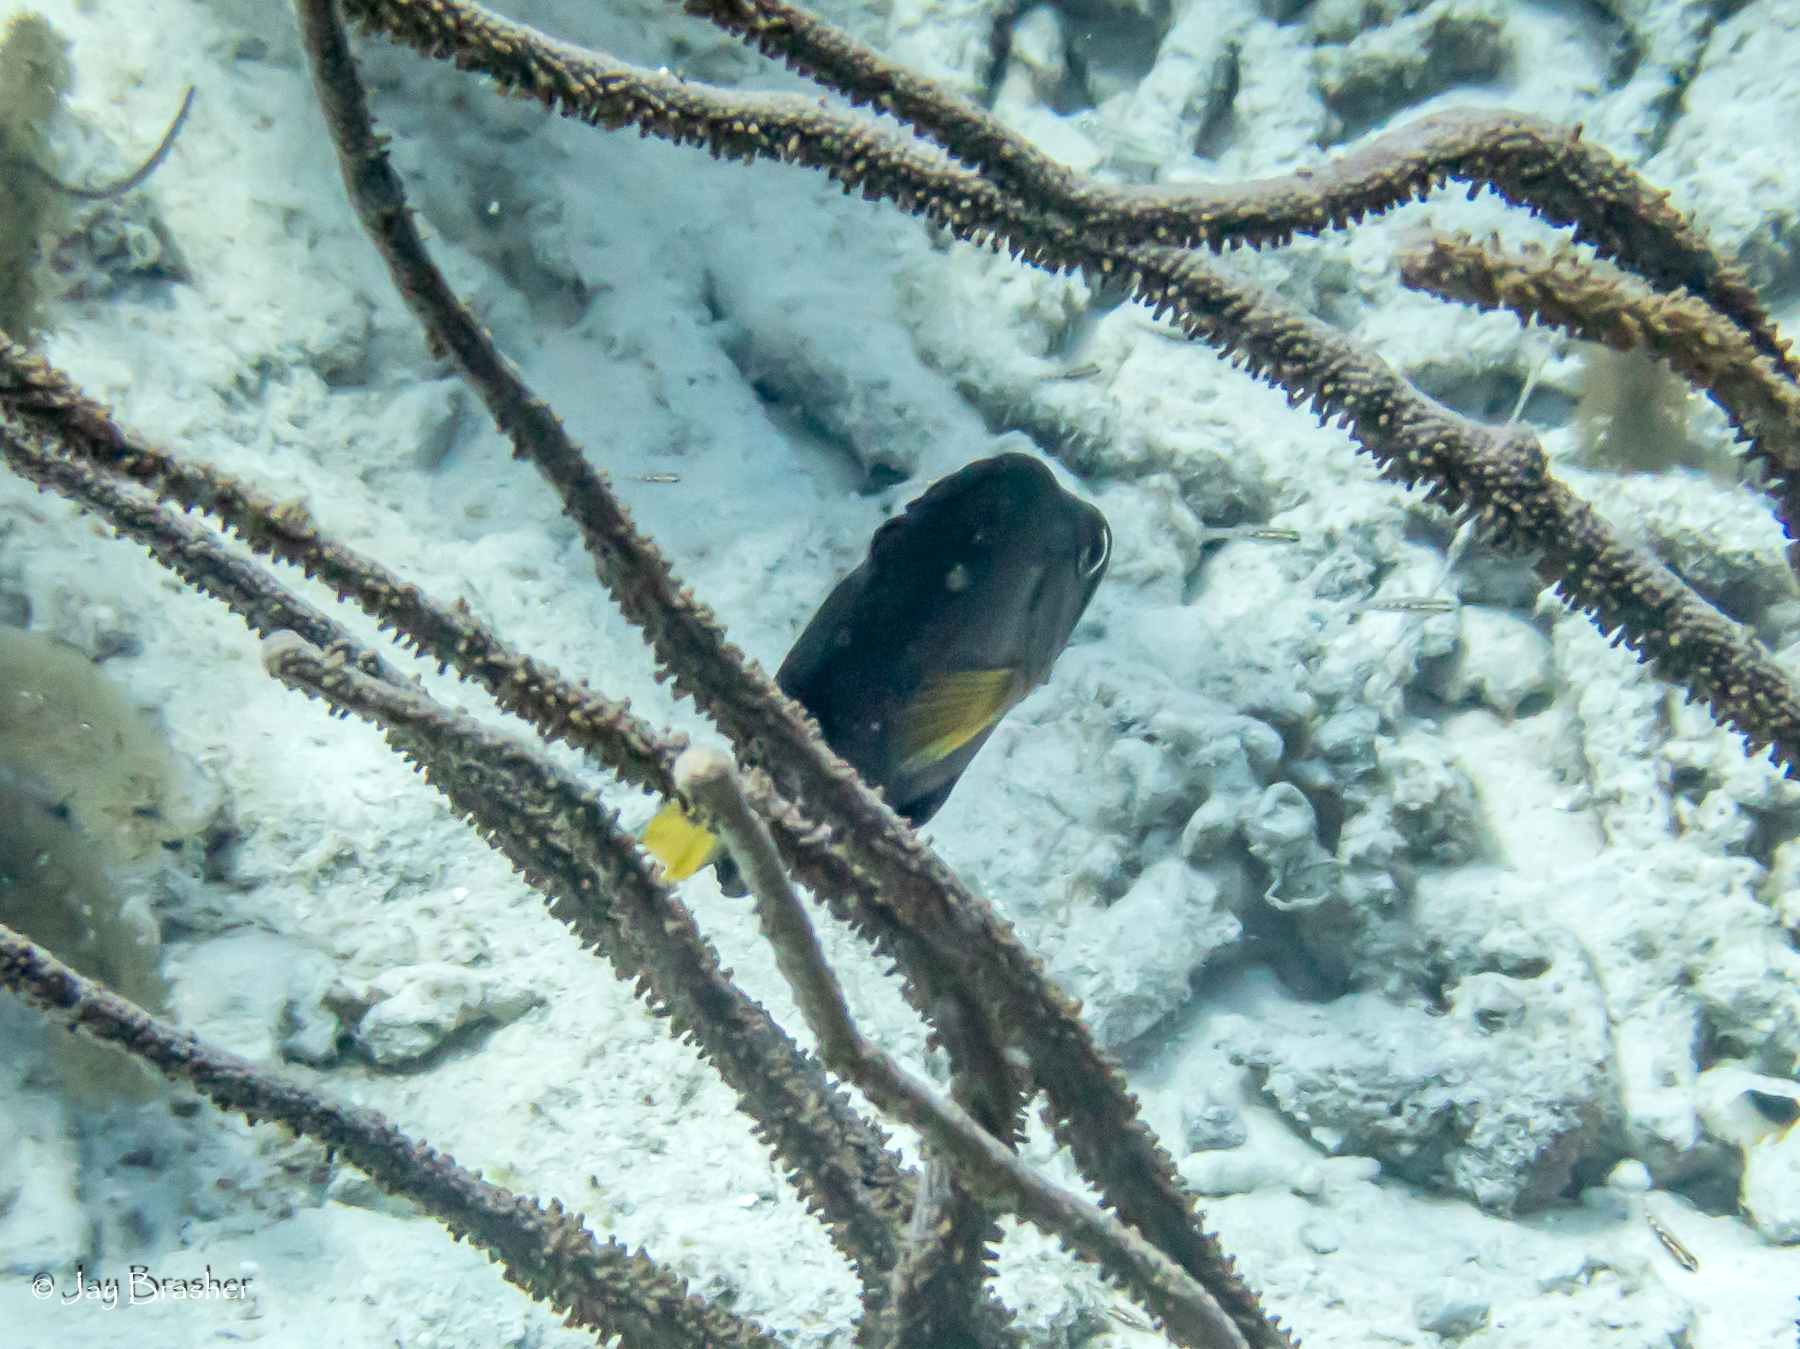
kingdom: Animalia
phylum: Chordata
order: Perciformes
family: Serranidae
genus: Hypoplectrus
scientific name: Hypoplectrus chlorurus
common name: Yellowtail hamlet
